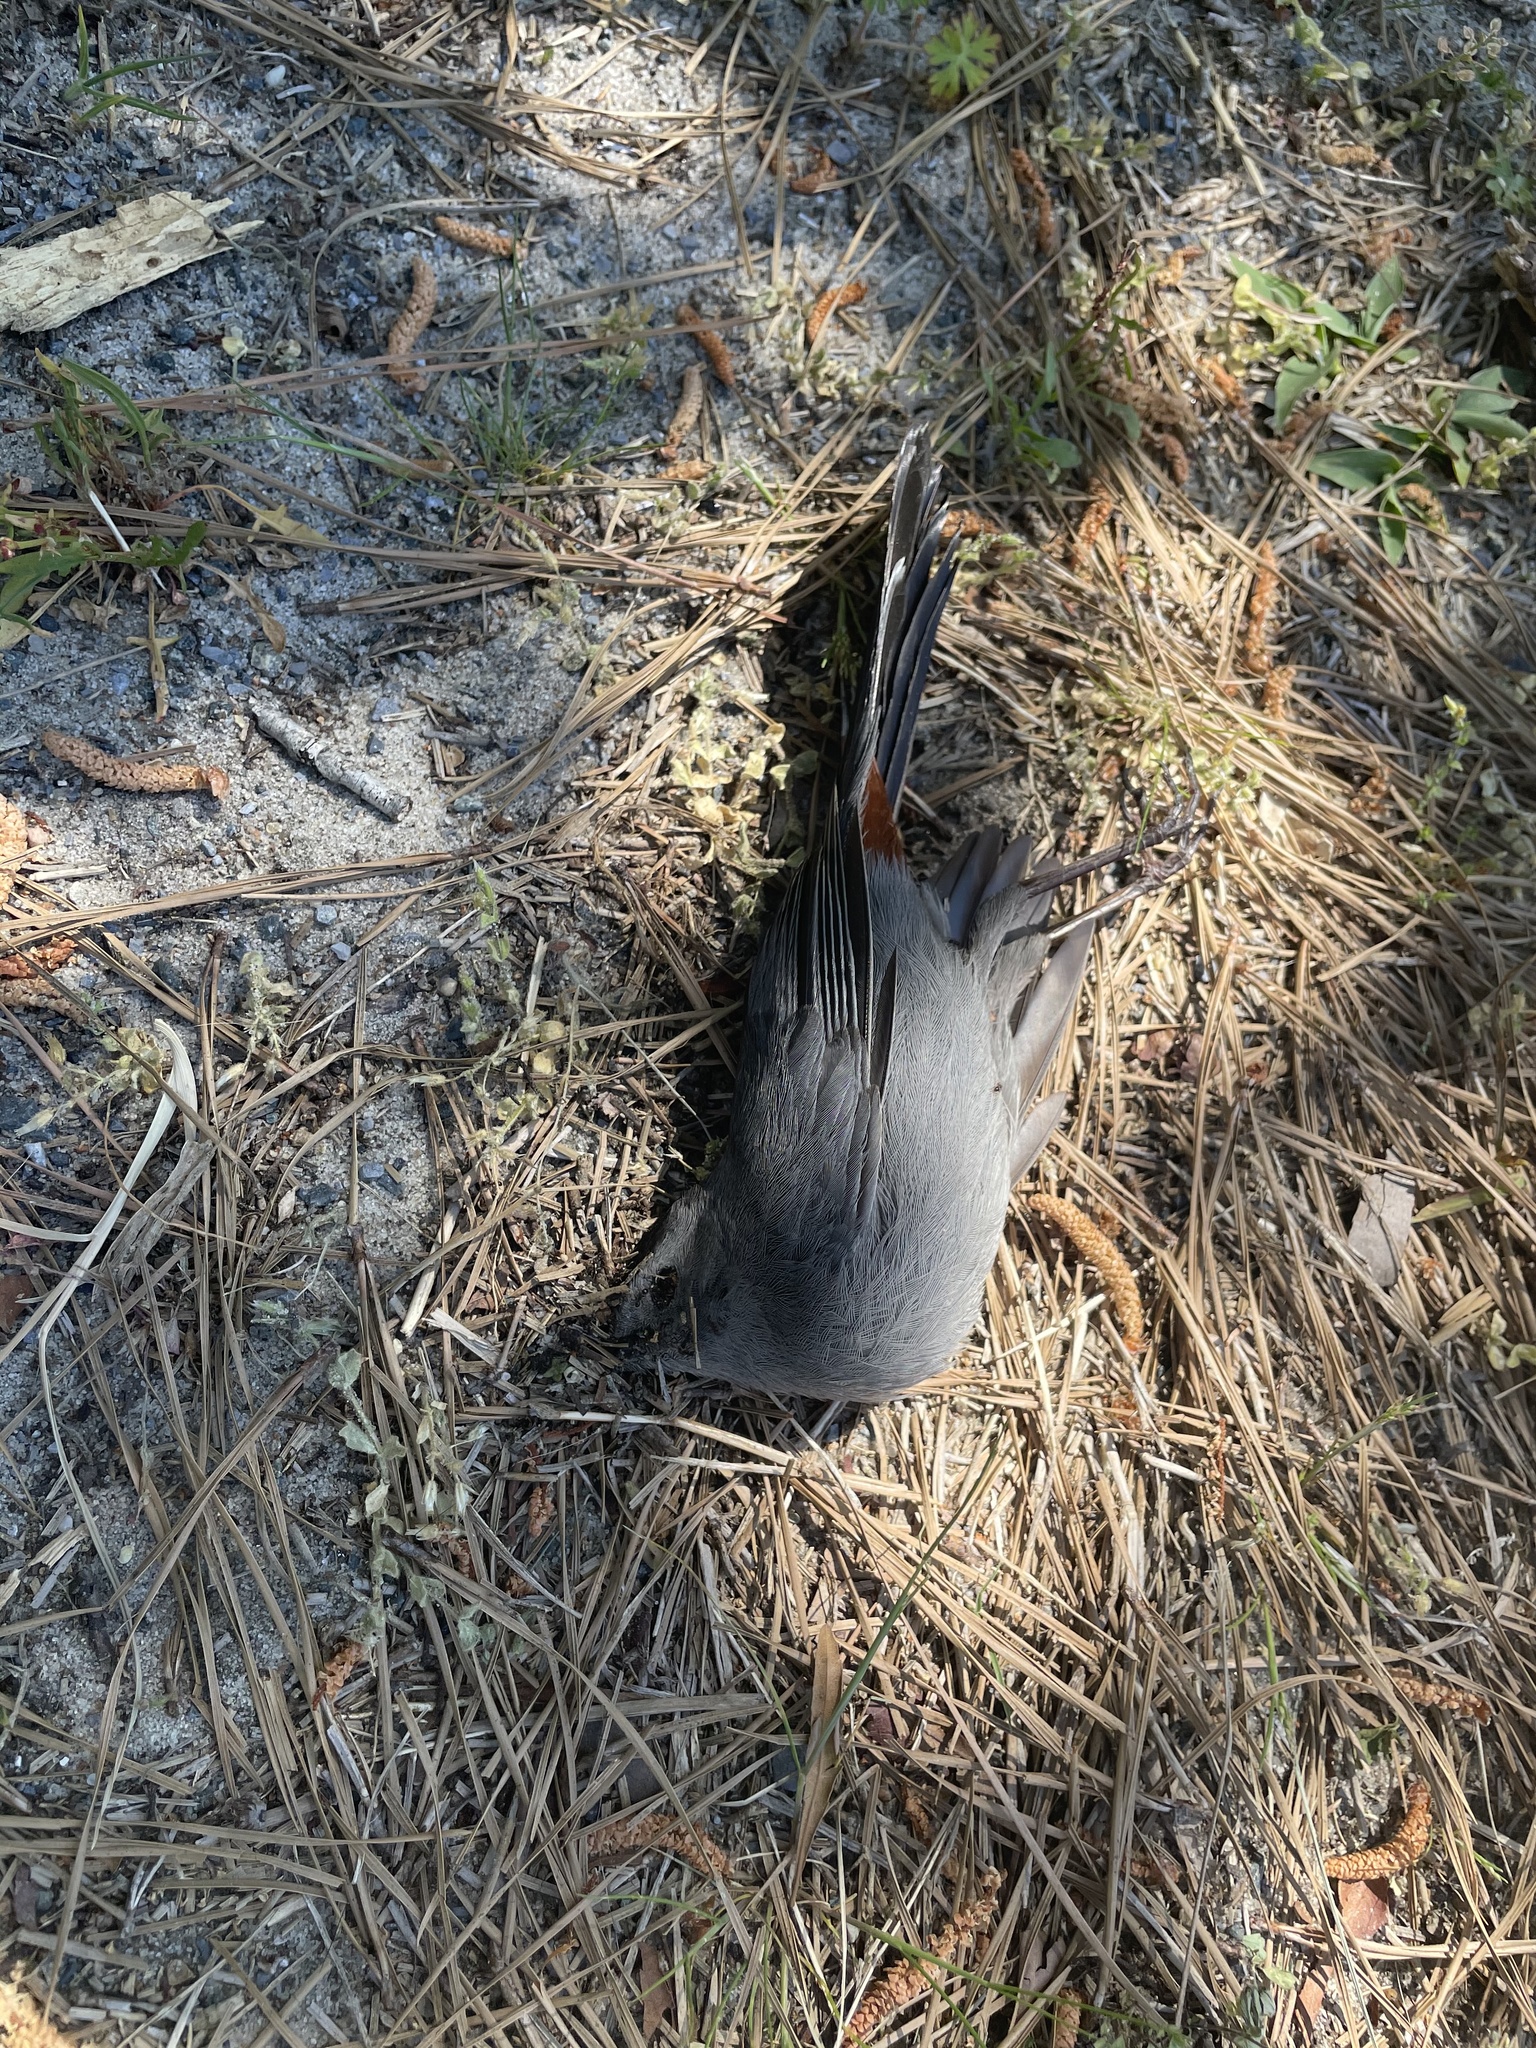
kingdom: Animalia
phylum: Chordata
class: Aves
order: Passeriformes
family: Mimidae
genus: Dumetella
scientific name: Dumetella carolinensis
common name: Gray catbird
